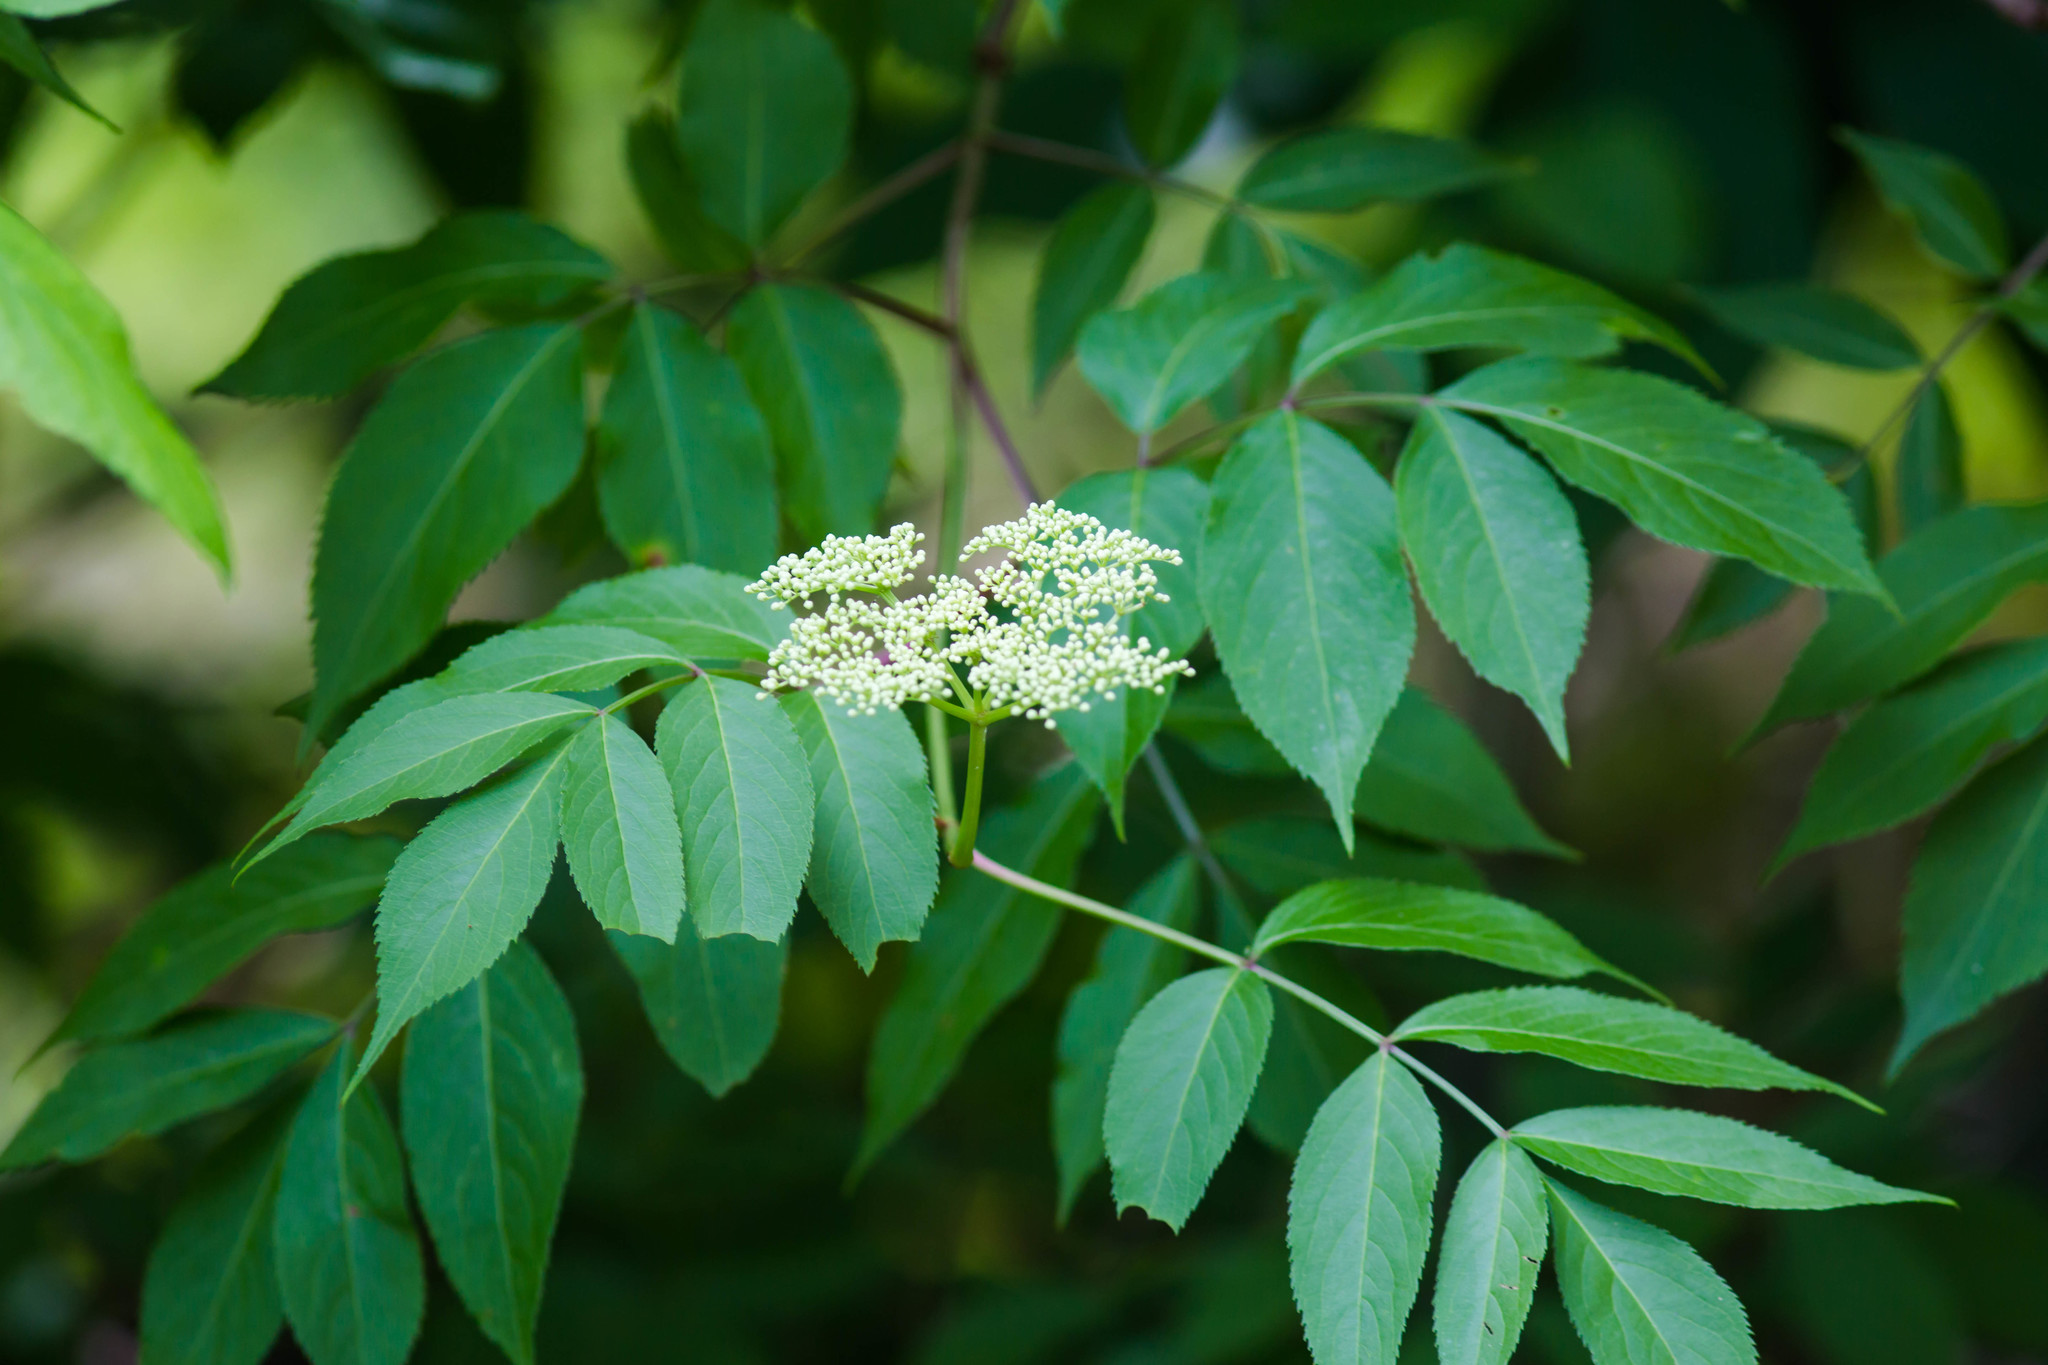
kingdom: Plantae
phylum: Tracheophyta
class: Magnoliopsida
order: Dipsacales
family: Viburnaceae
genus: Sambucus
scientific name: Sambucus canadensis
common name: American elder
